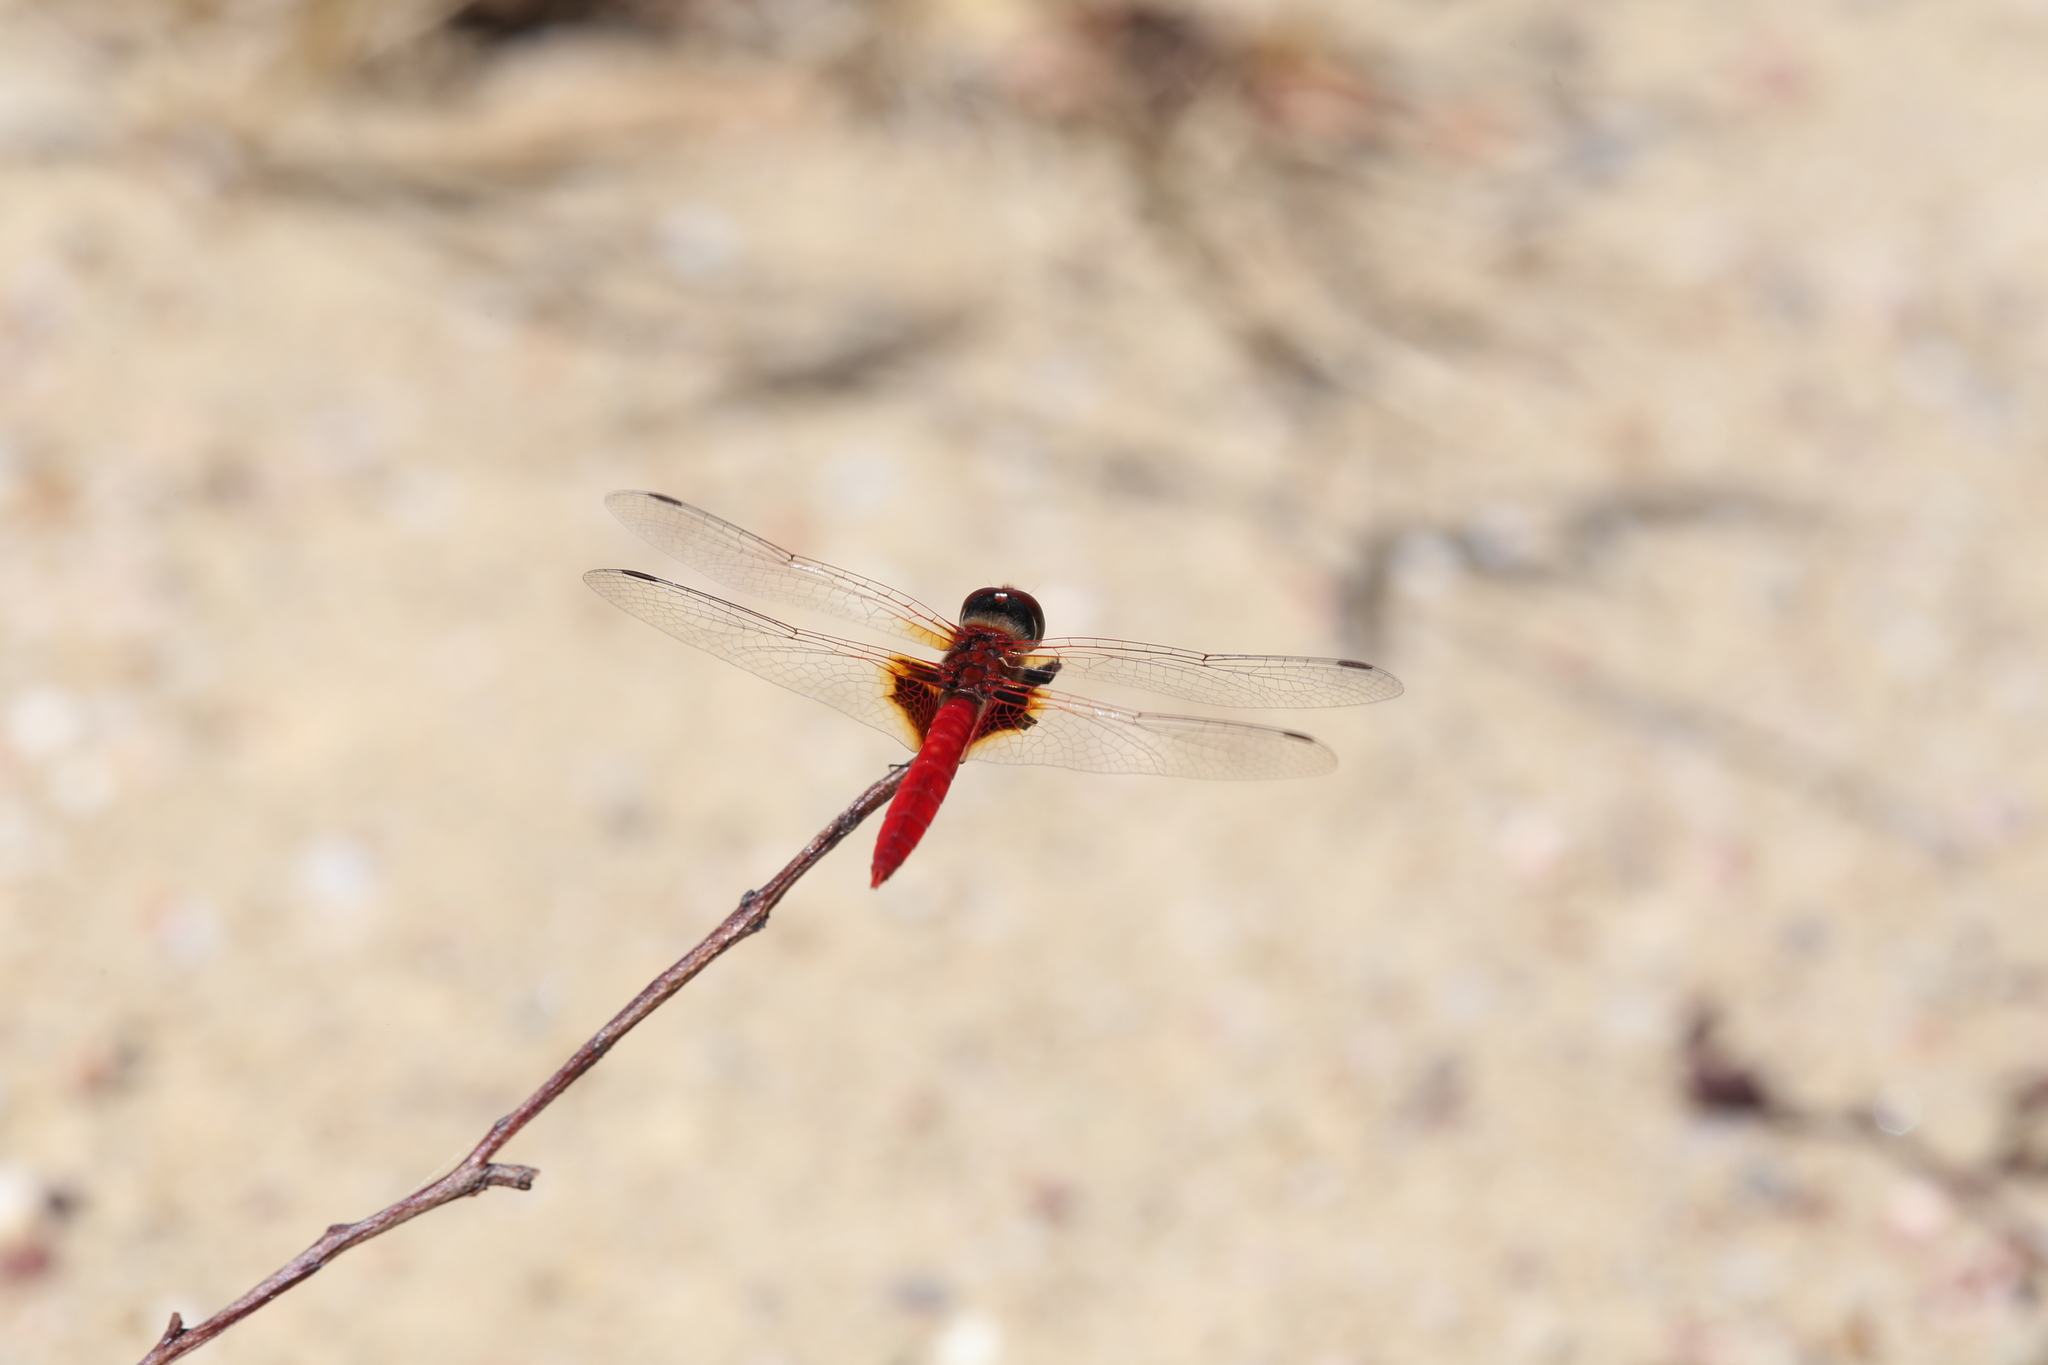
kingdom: Animalia
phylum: Arthropoda
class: Insecta
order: Odonata
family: Libellulidae
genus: Aethriamanta
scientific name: Aethriamanta circumsignata
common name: Square-spot basker
